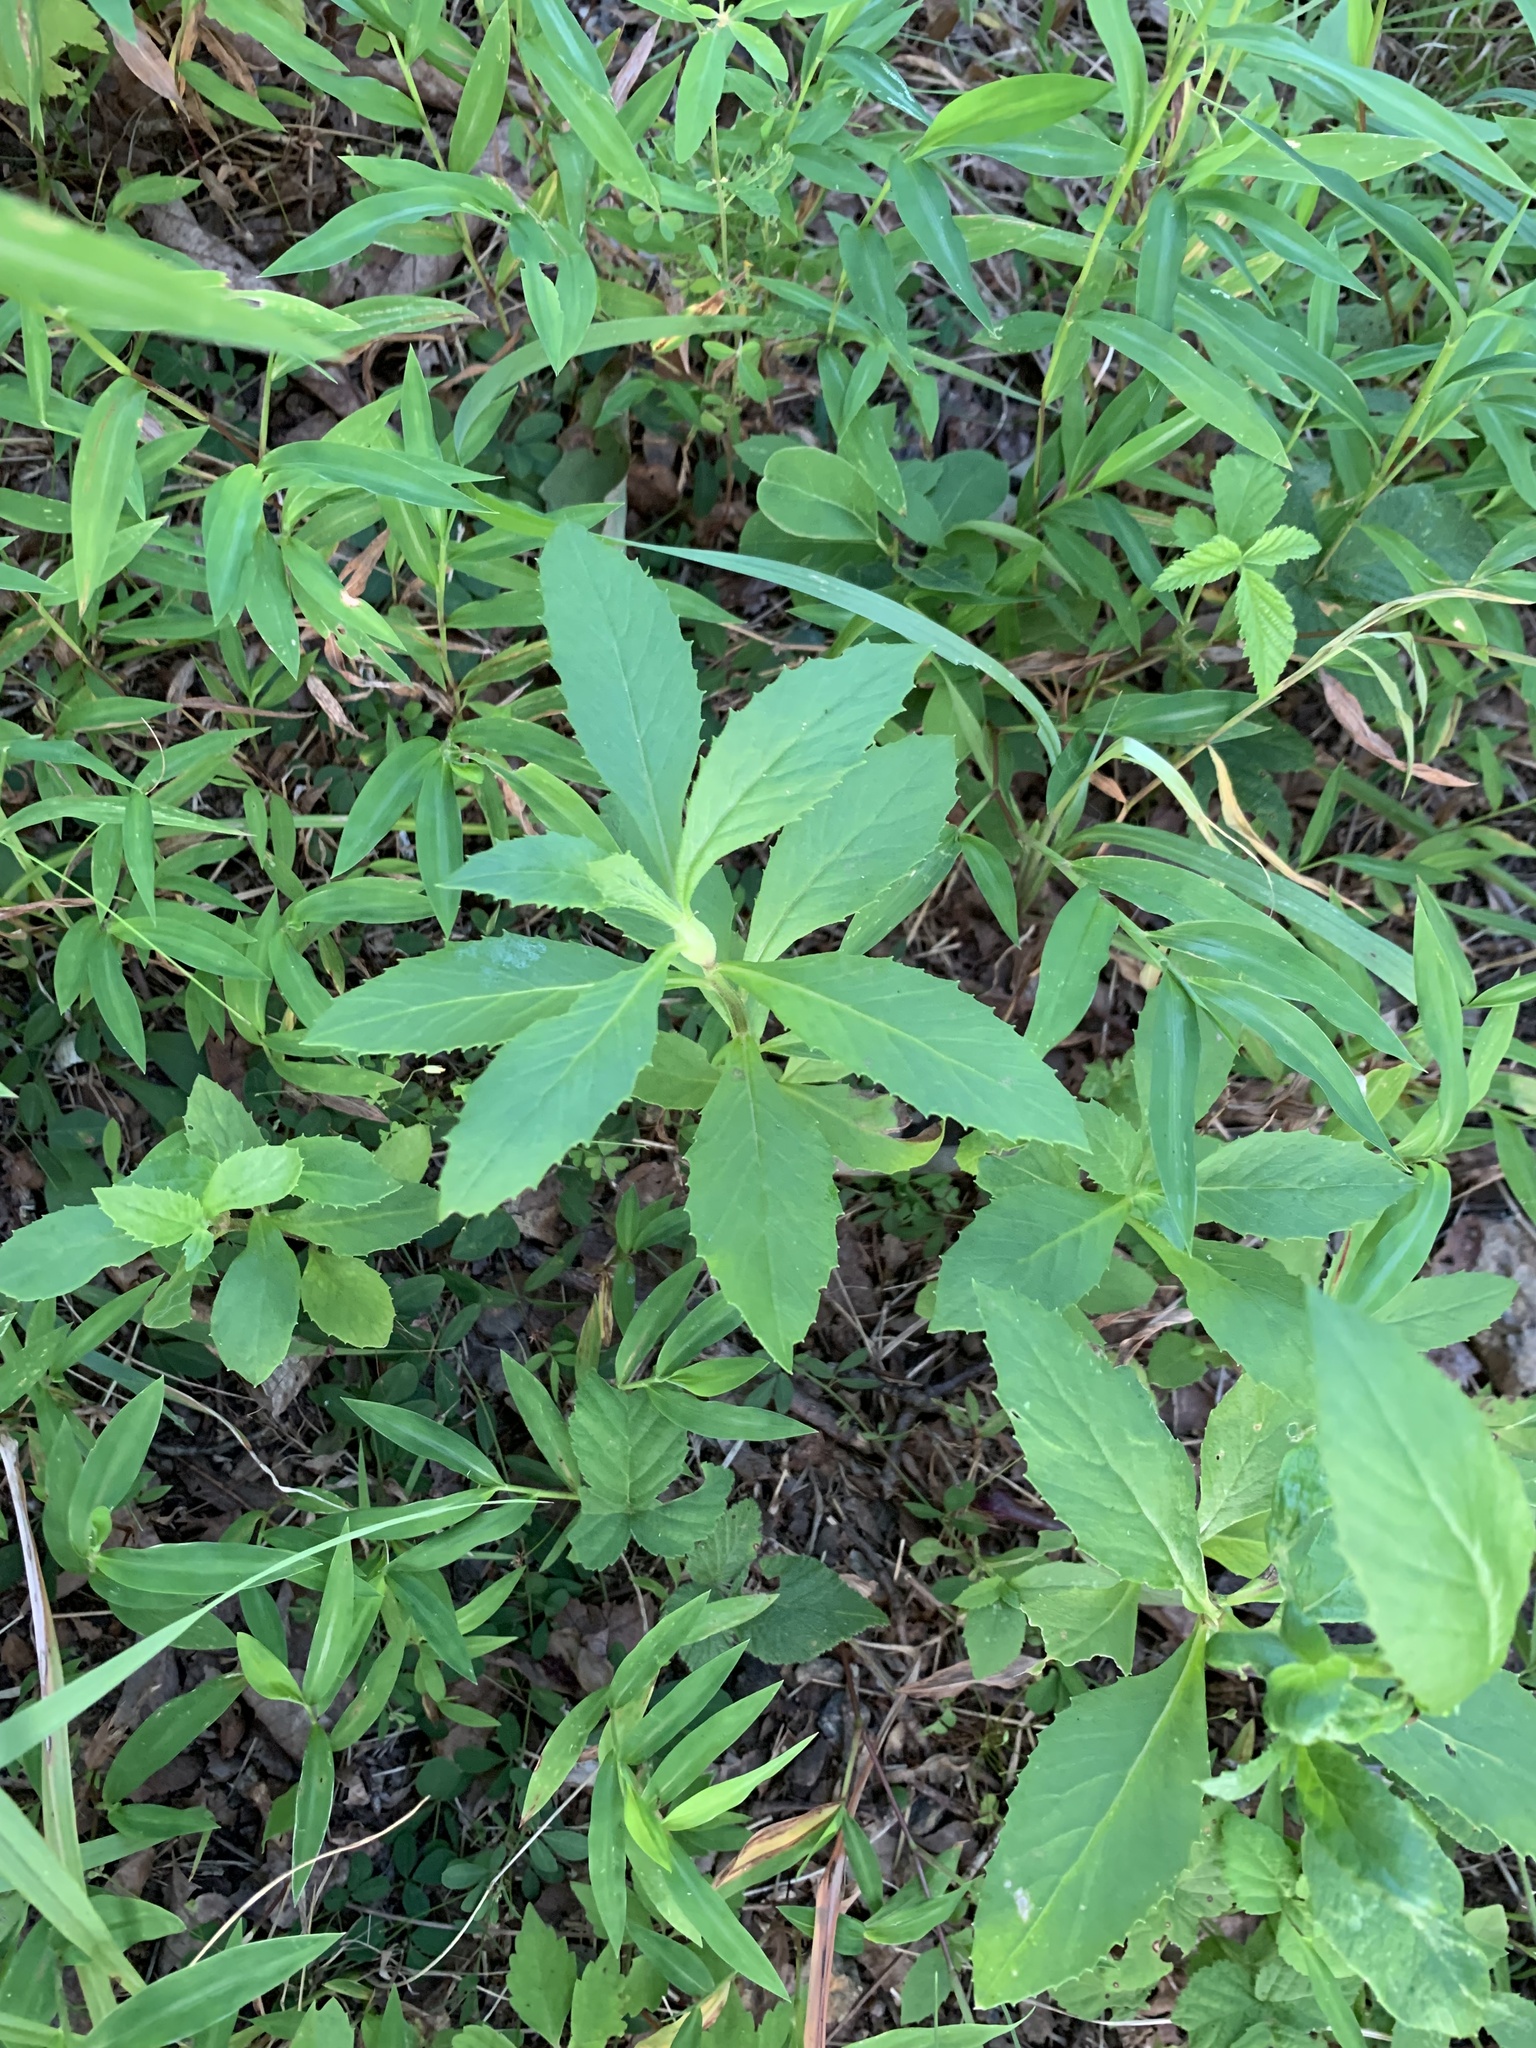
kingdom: Plantae
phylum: Tracheophyta
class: Magnoliopsida
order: Asterales
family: Asteraceae
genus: Erechtites
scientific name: Erechtites hieraciifolius
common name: American burnweed
